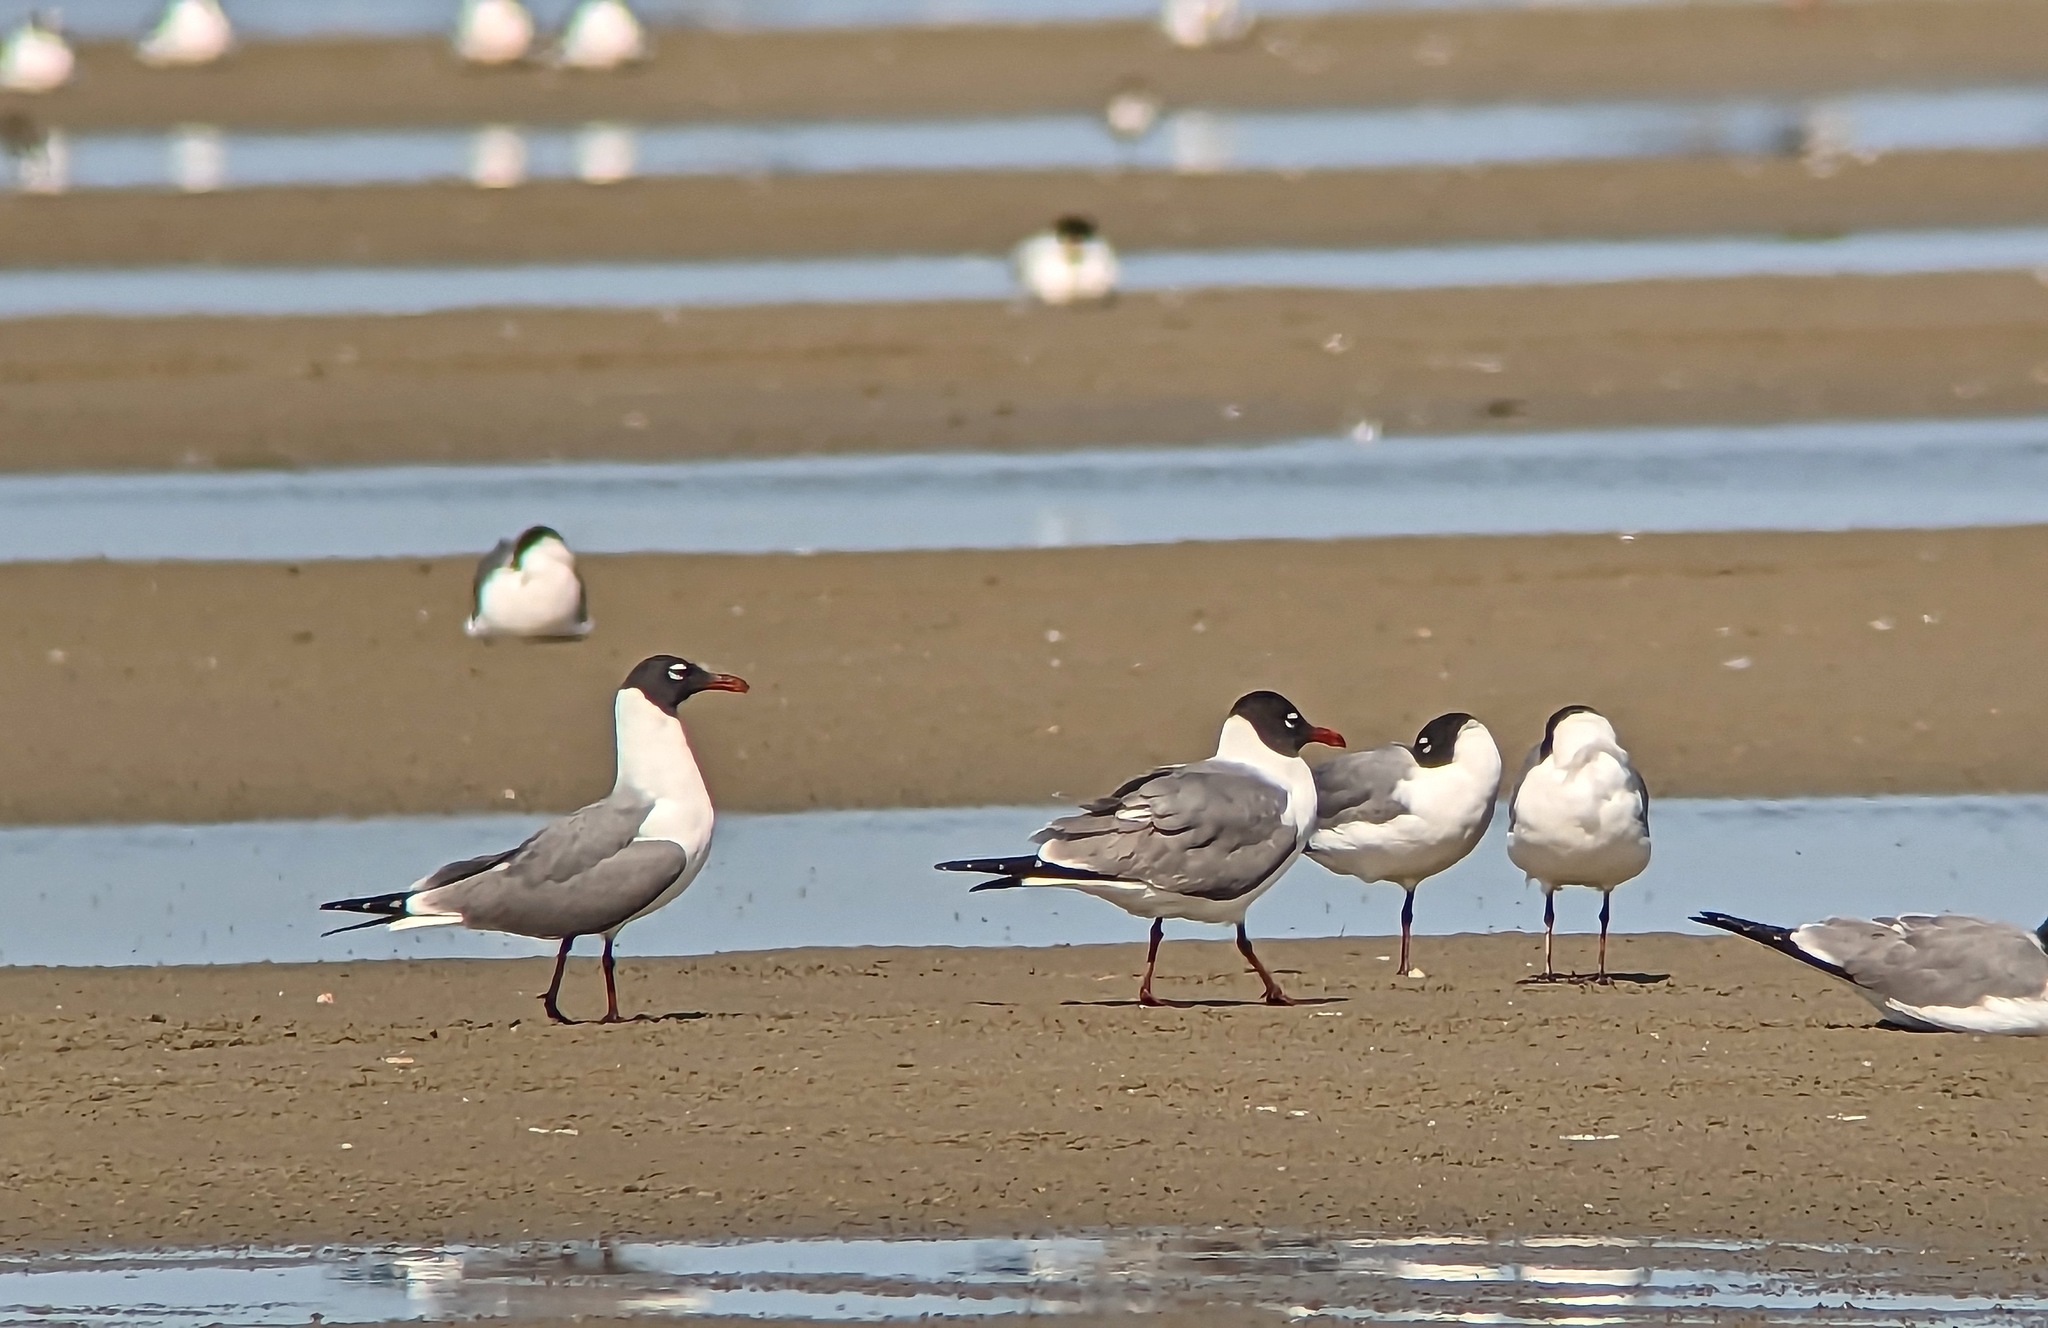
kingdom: Animalia
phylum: Chordata
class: Aves
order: Charadriiformes
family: Laridae
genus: Leucophaeus
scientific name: Leucophaeus atricilla
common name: Laughing gull
